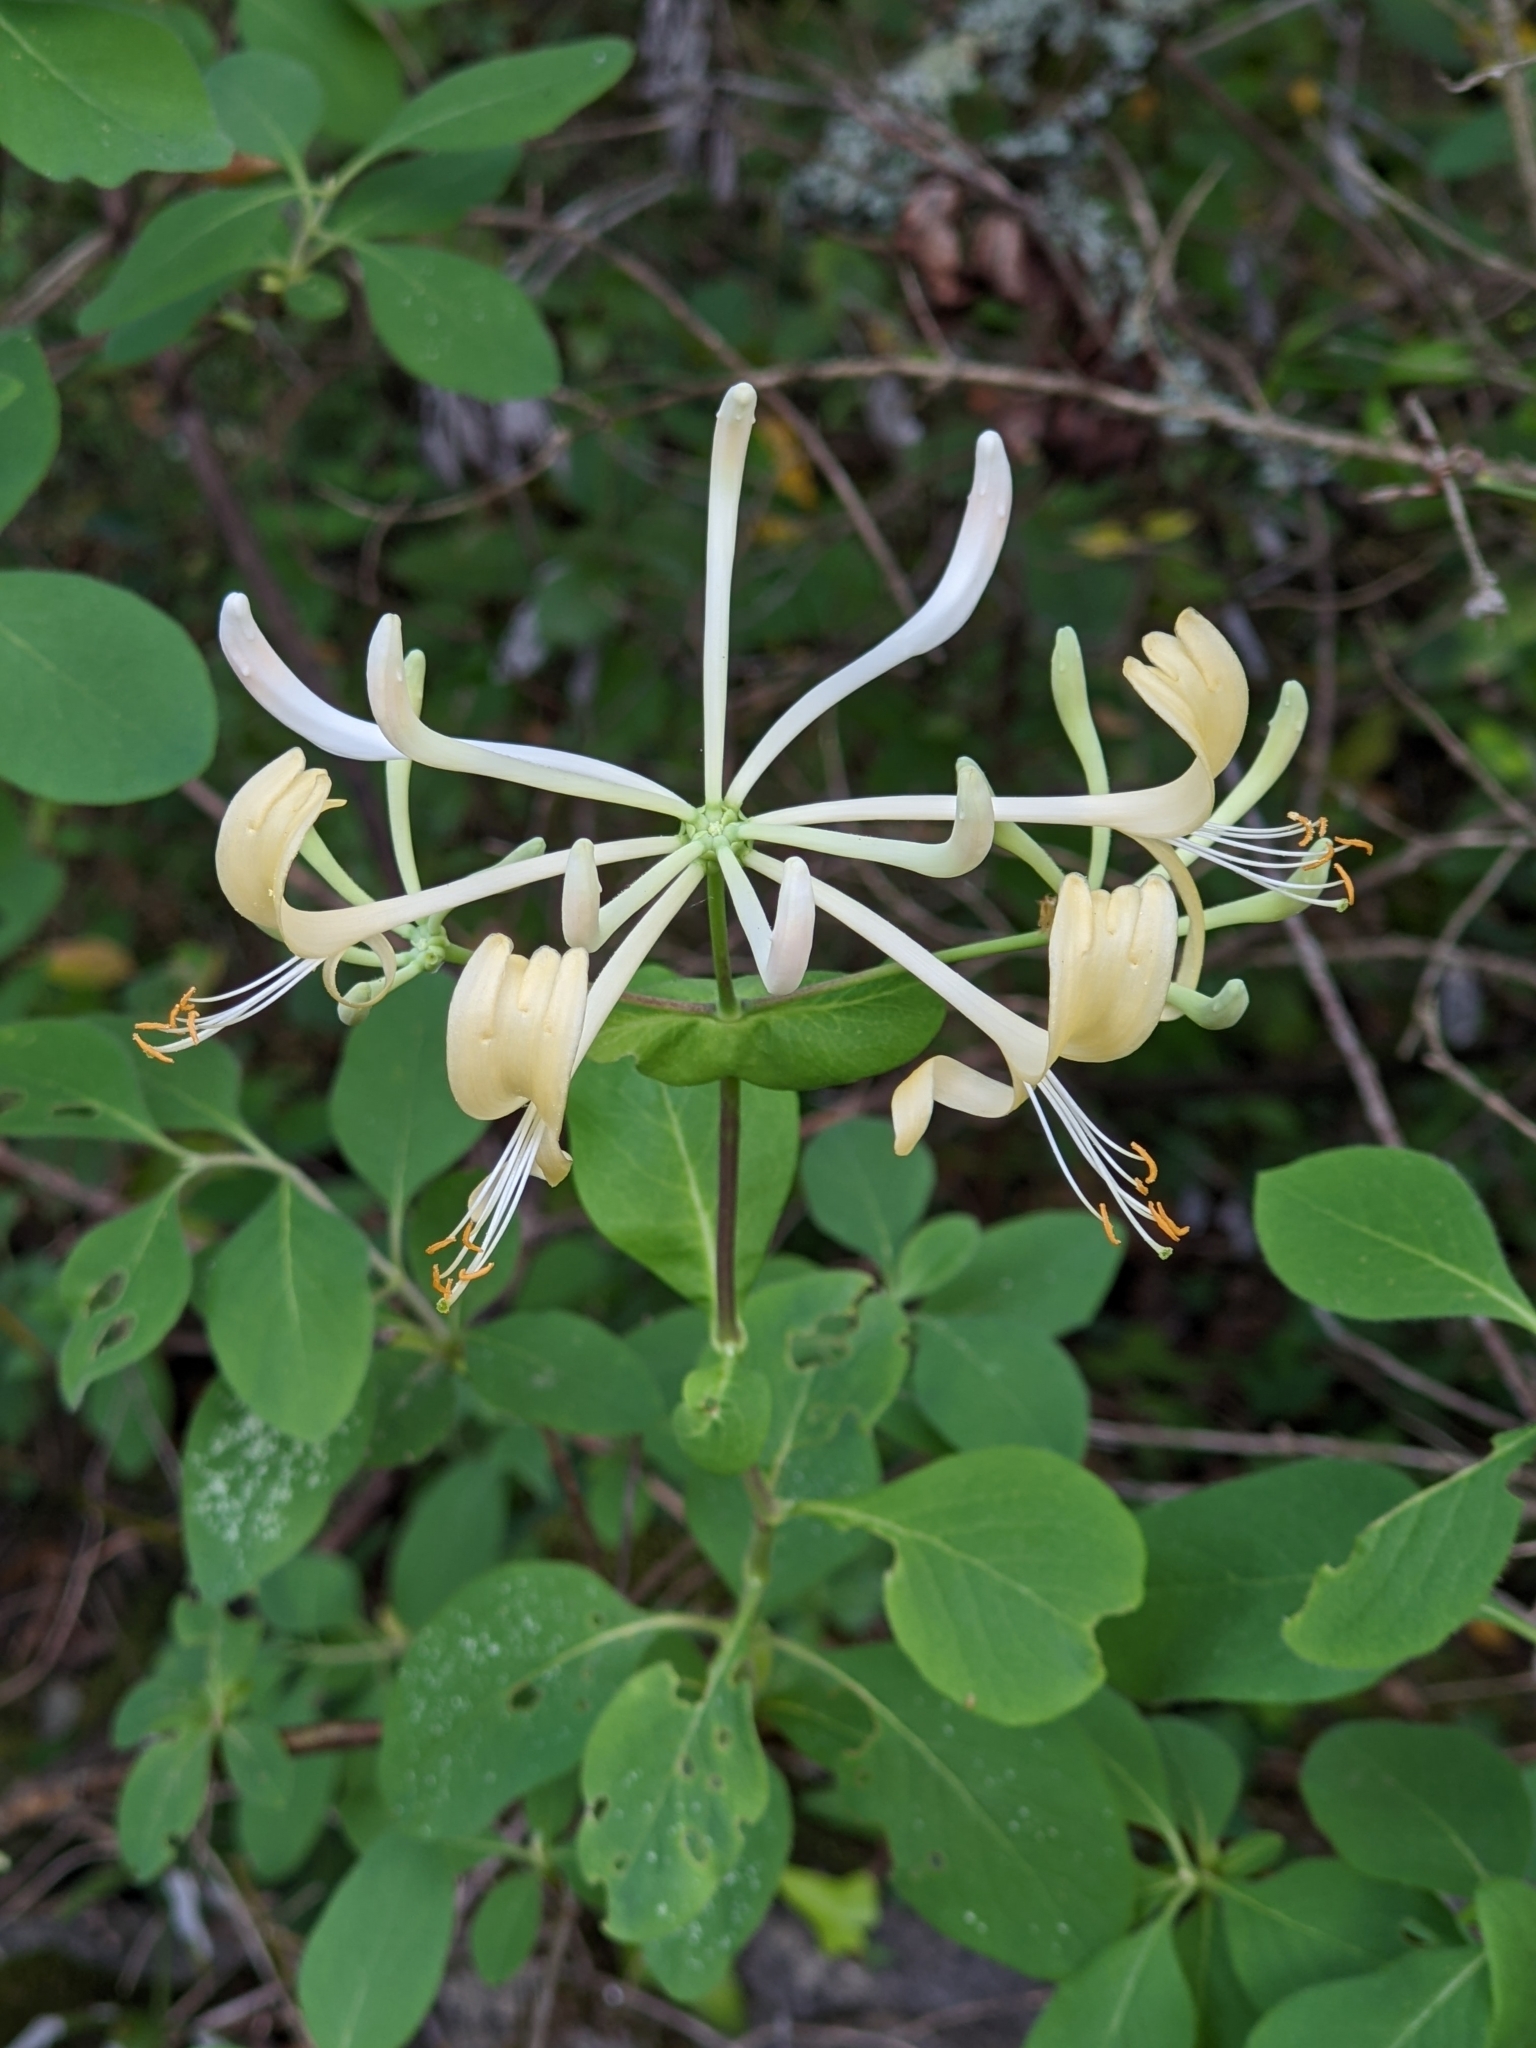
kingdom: Plantae
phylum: Tracheophyta
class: Magnoliopsida
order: Dipsacales
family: Caprifoliaceae
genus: Lonicera
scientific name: Lonicera etrusca
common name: Etruscan honeysuckle
